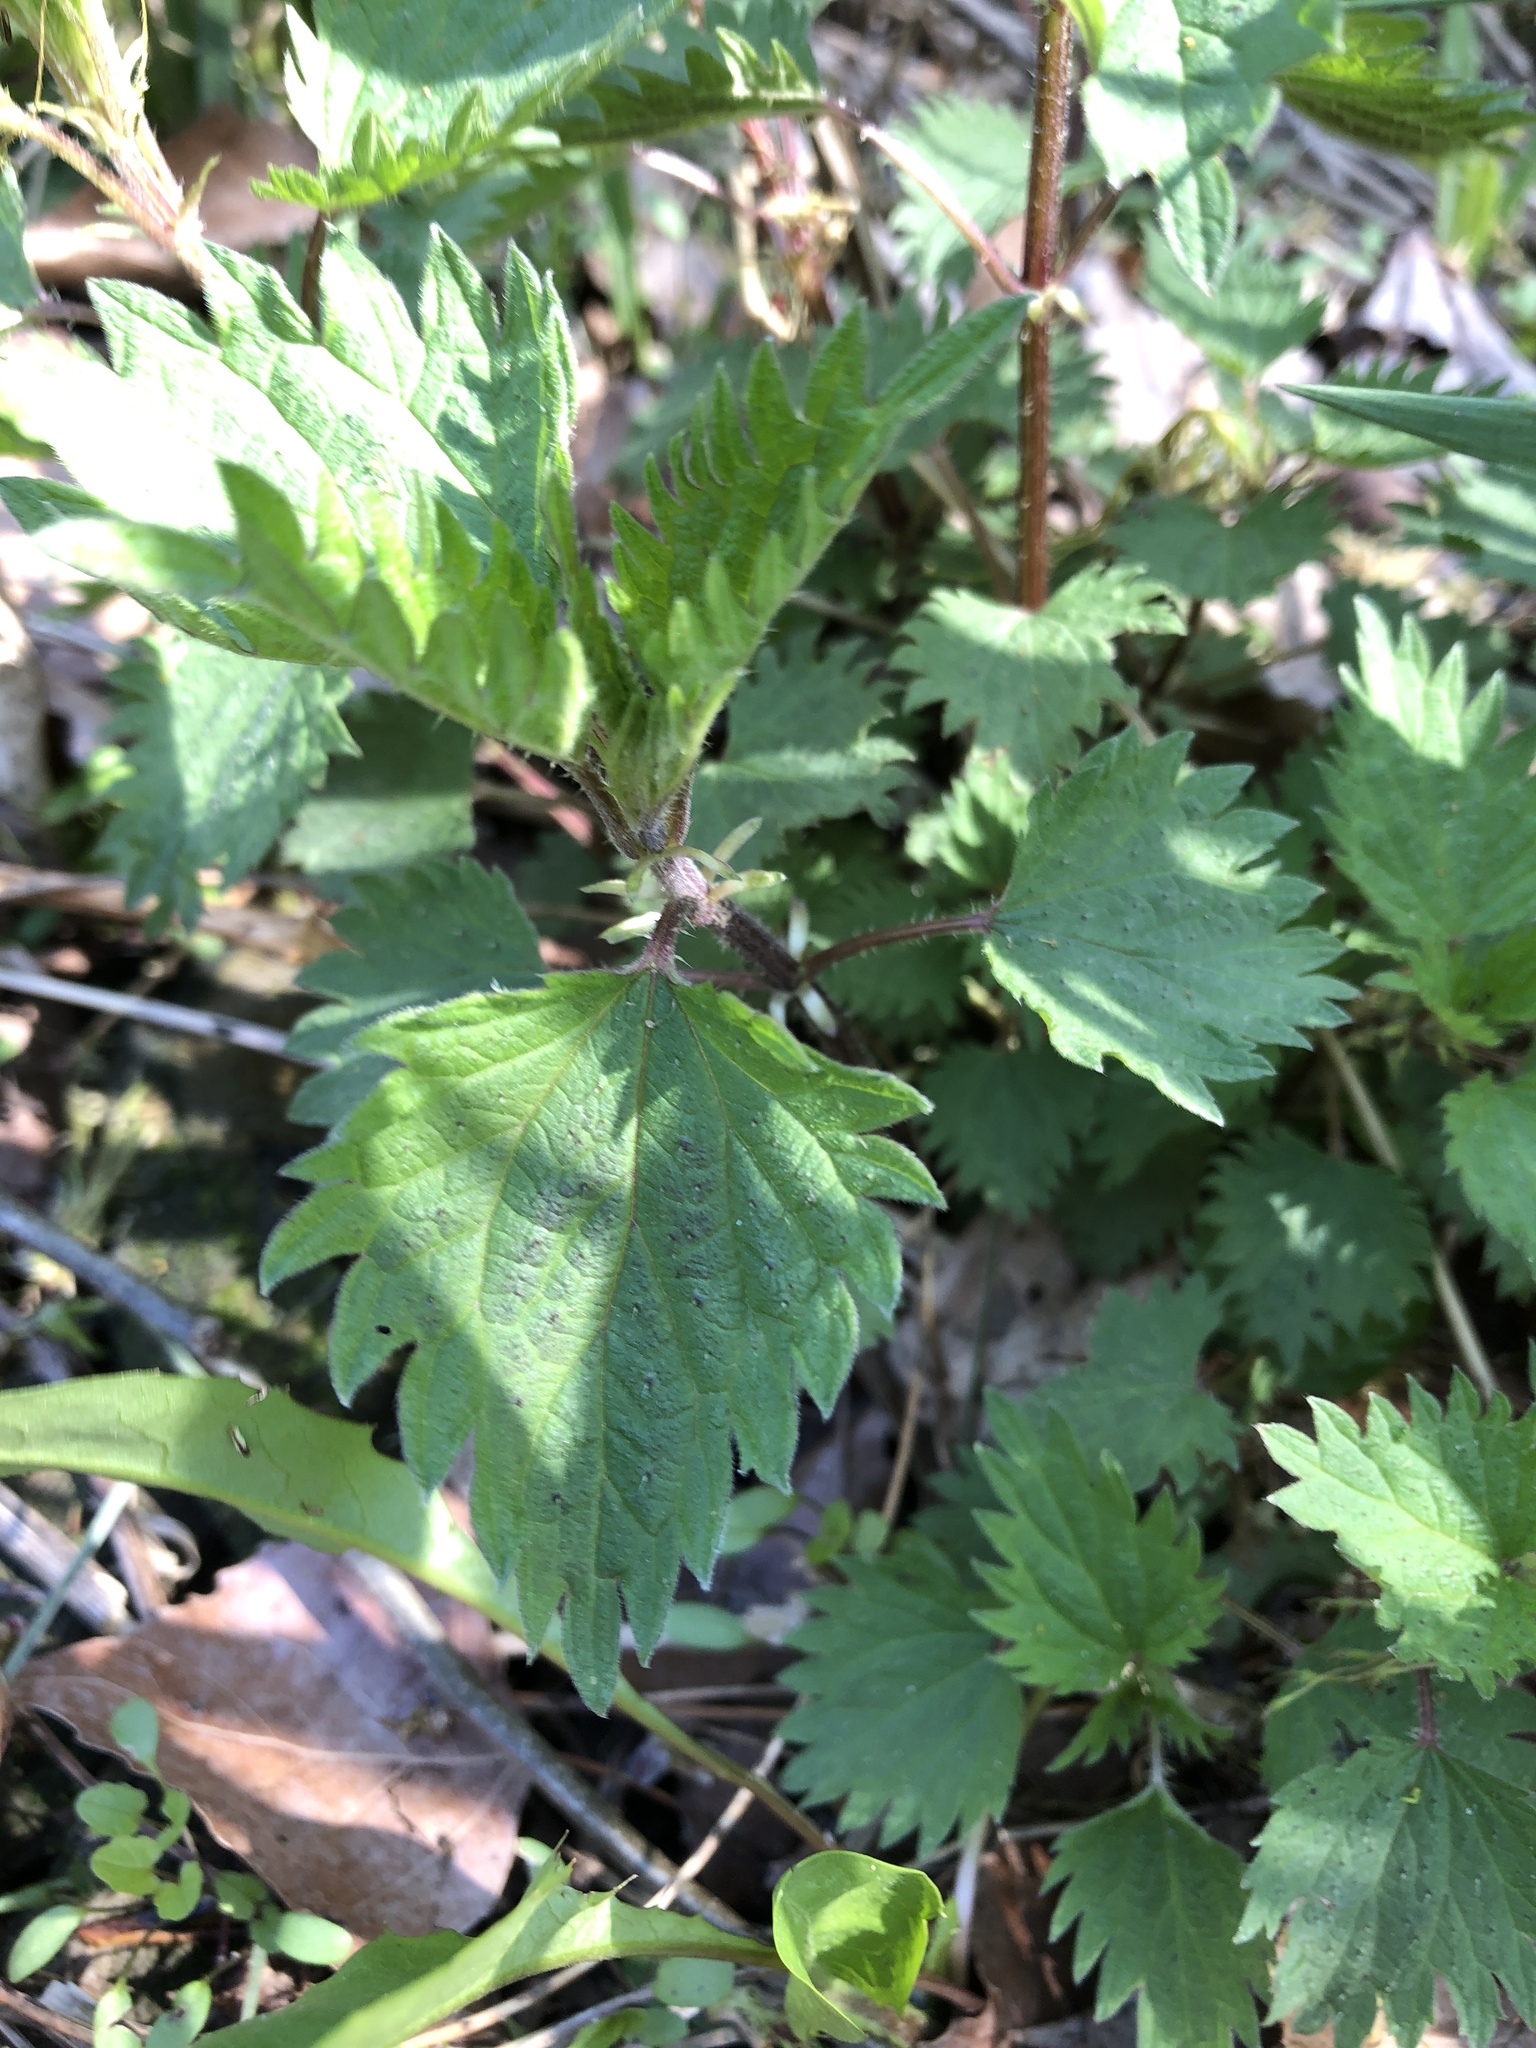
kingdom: Plantae
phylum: Tracheophyta
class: Magnoliopsida
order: Rosales
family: Urticaceae
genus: Urtica
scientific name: Urtica dioica
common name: Common nettle
